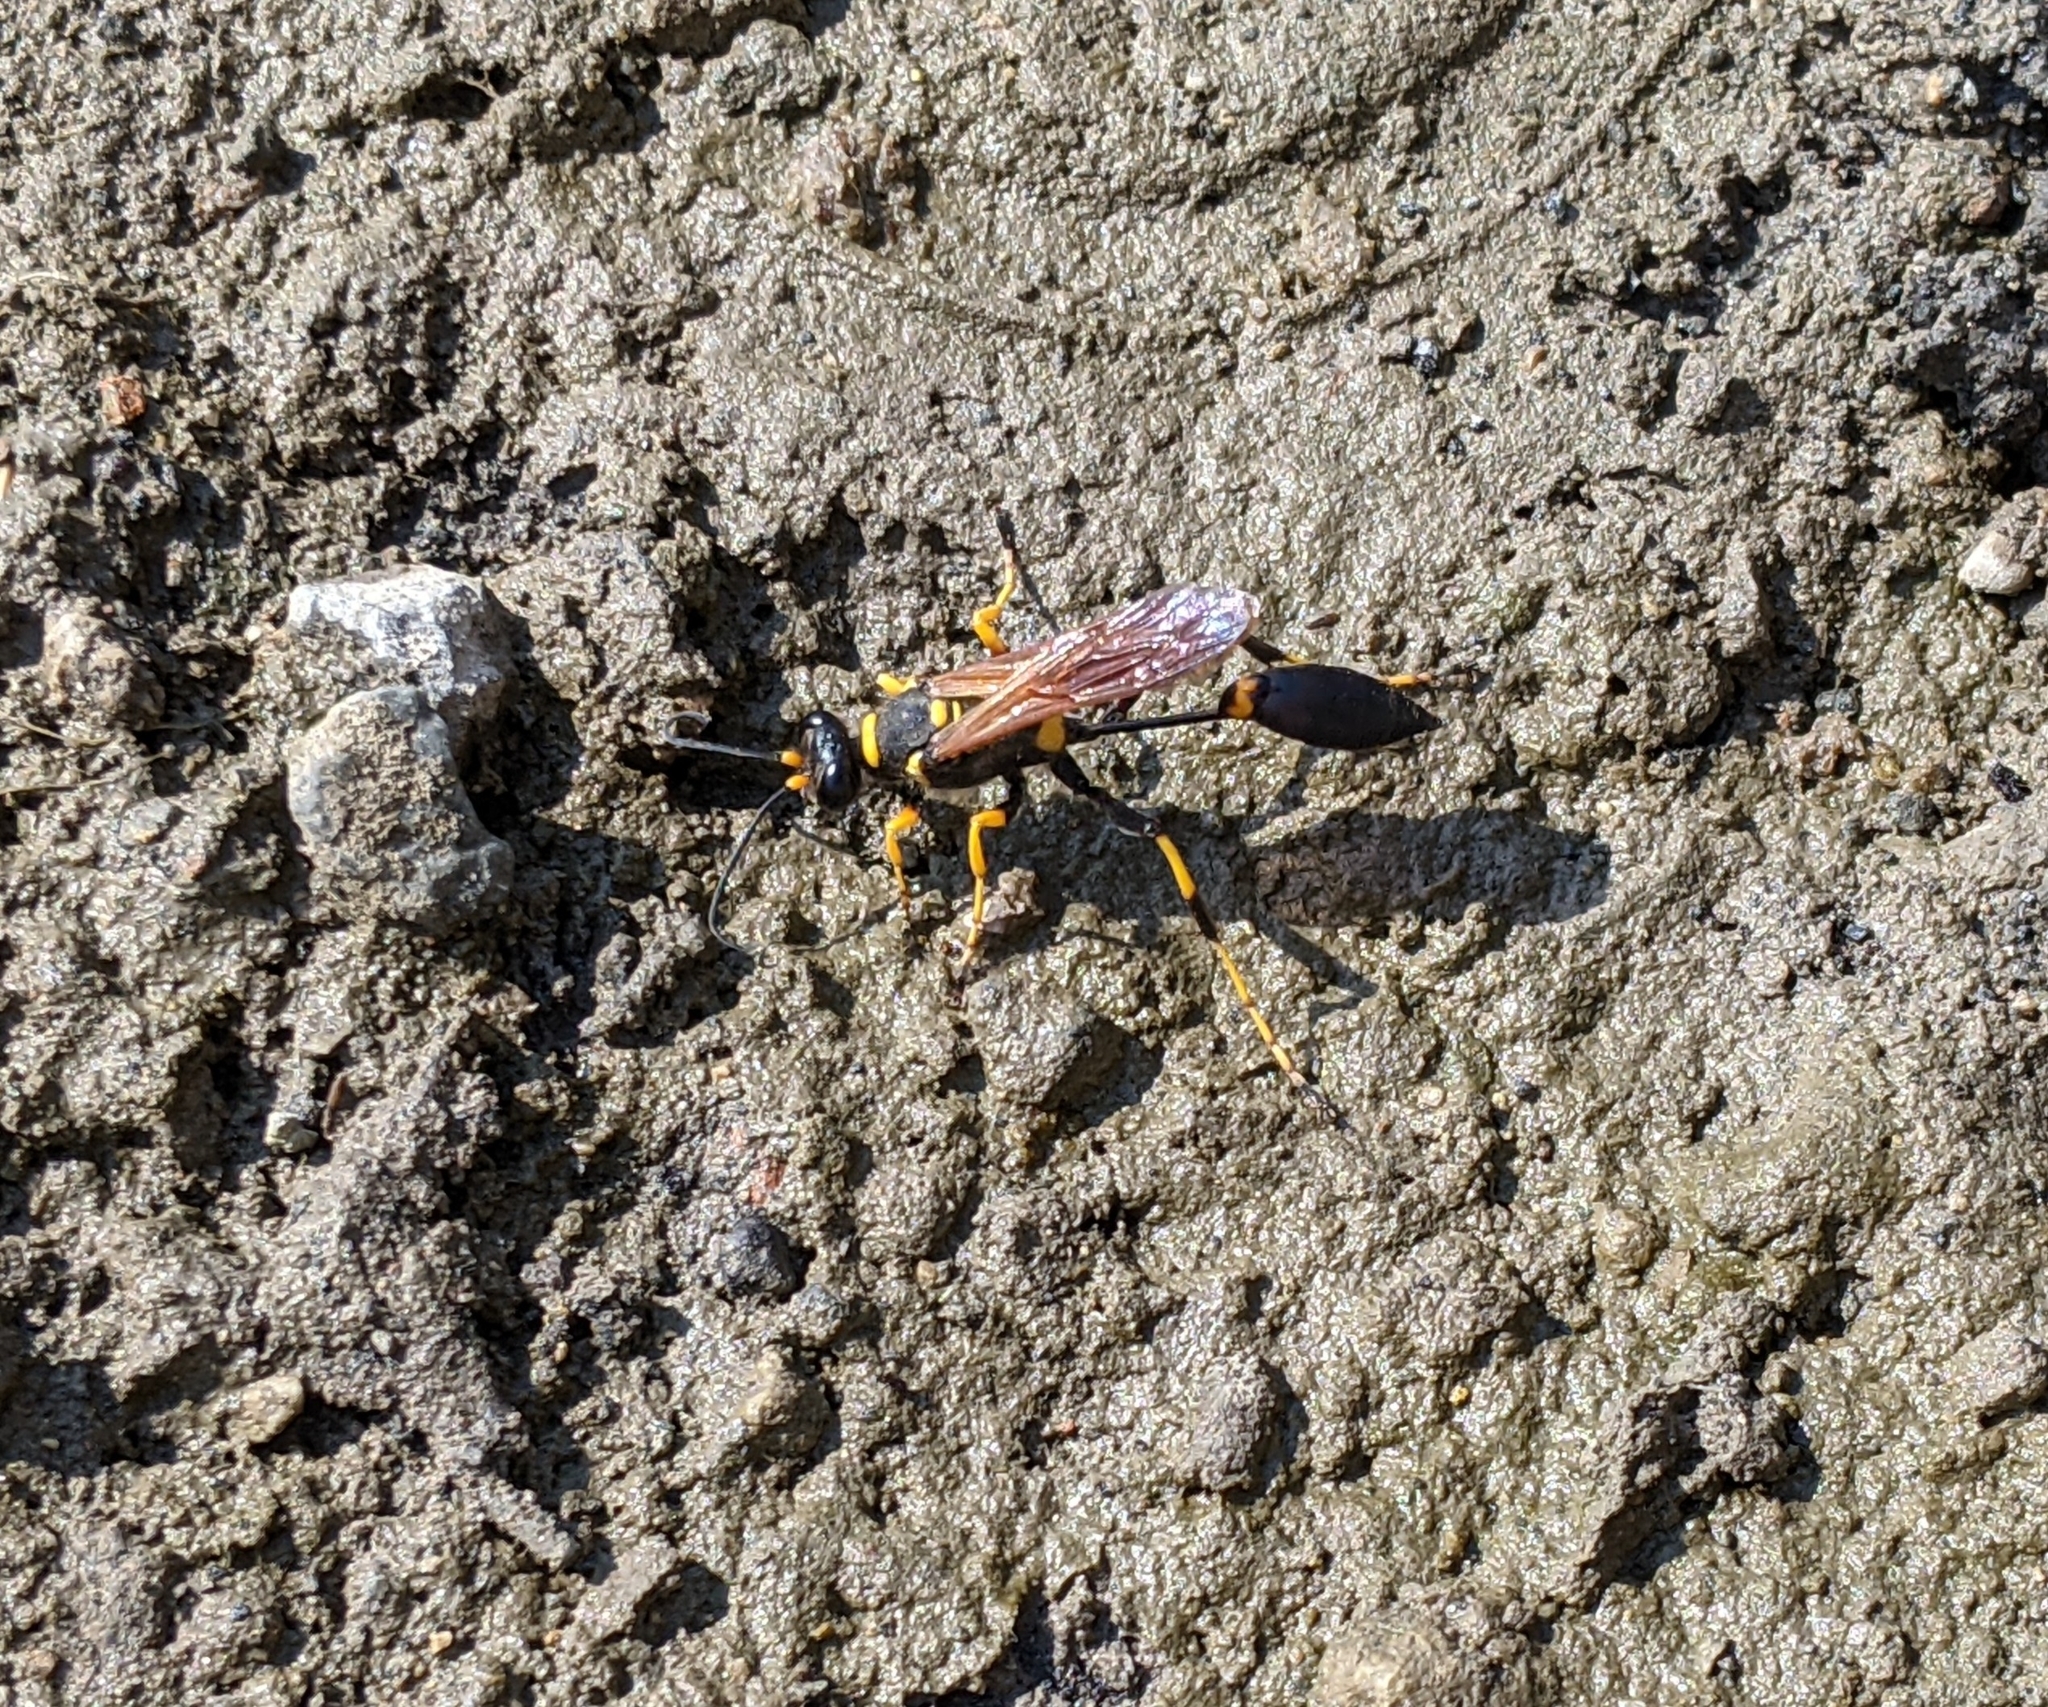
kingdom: Animalia
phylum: Arthropoda
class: Insecta
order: Hymenoptera
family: Sphecidae
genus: Sceliphron
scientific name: Sceliphron caementarium
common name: Mud dauber
